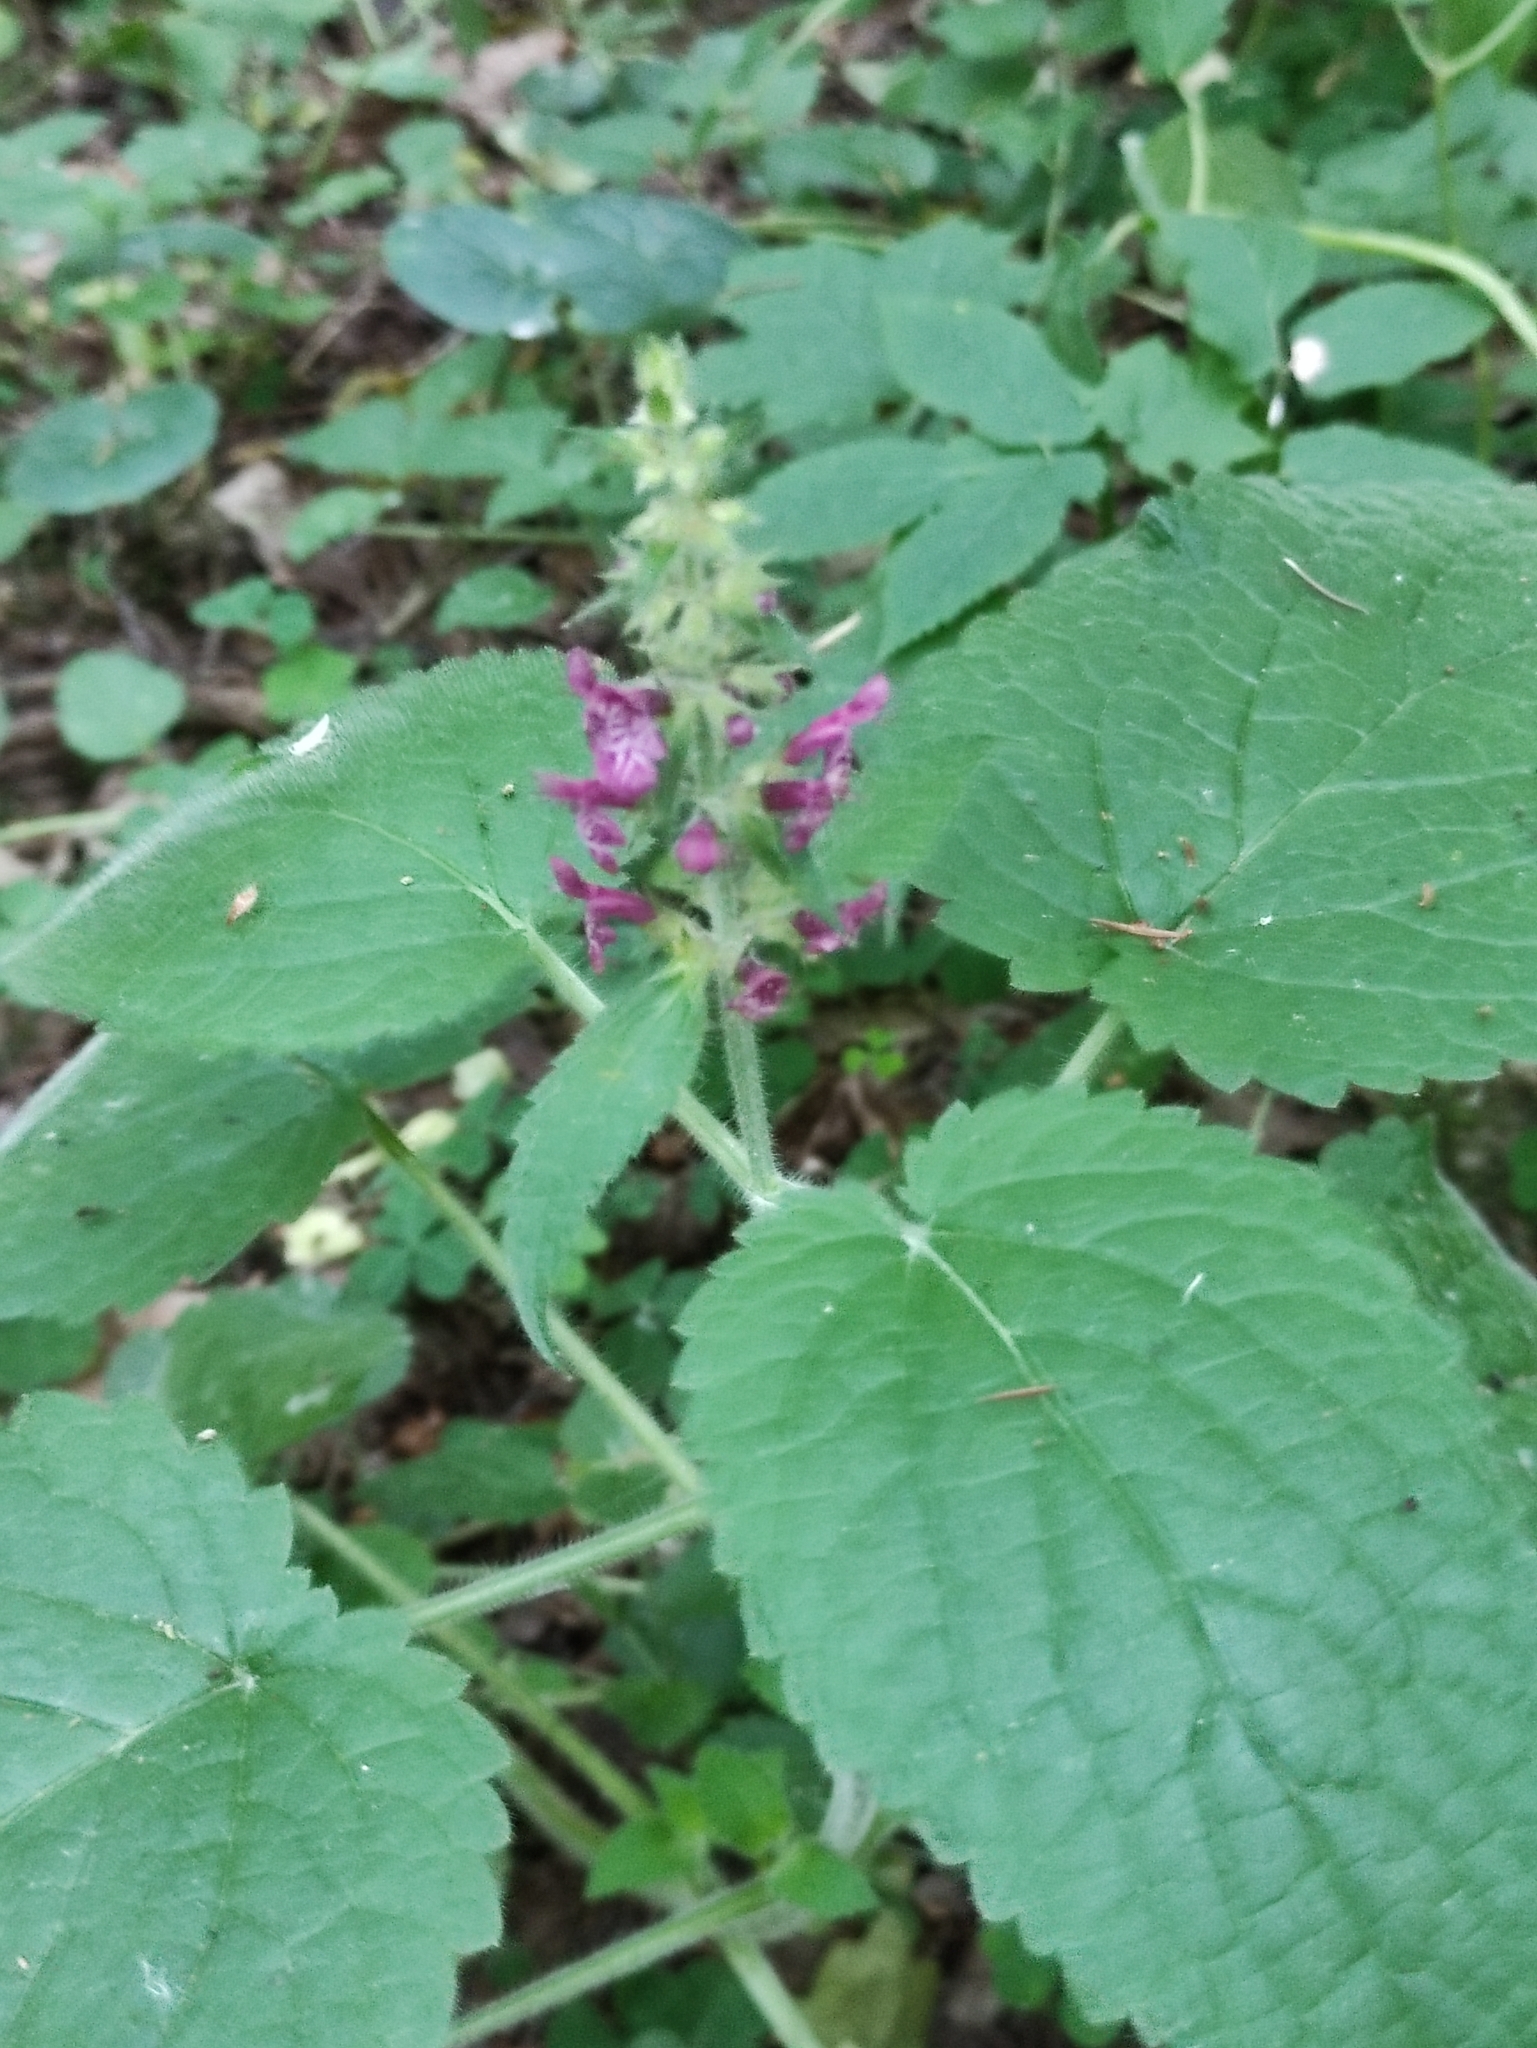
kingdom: Plantae
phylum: Tracheophyta
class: Magnoliopsida
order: Lamiales
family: Lamiaceae
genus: Stachys
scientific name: Stachys sylvatica
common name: Hedge woundwort
